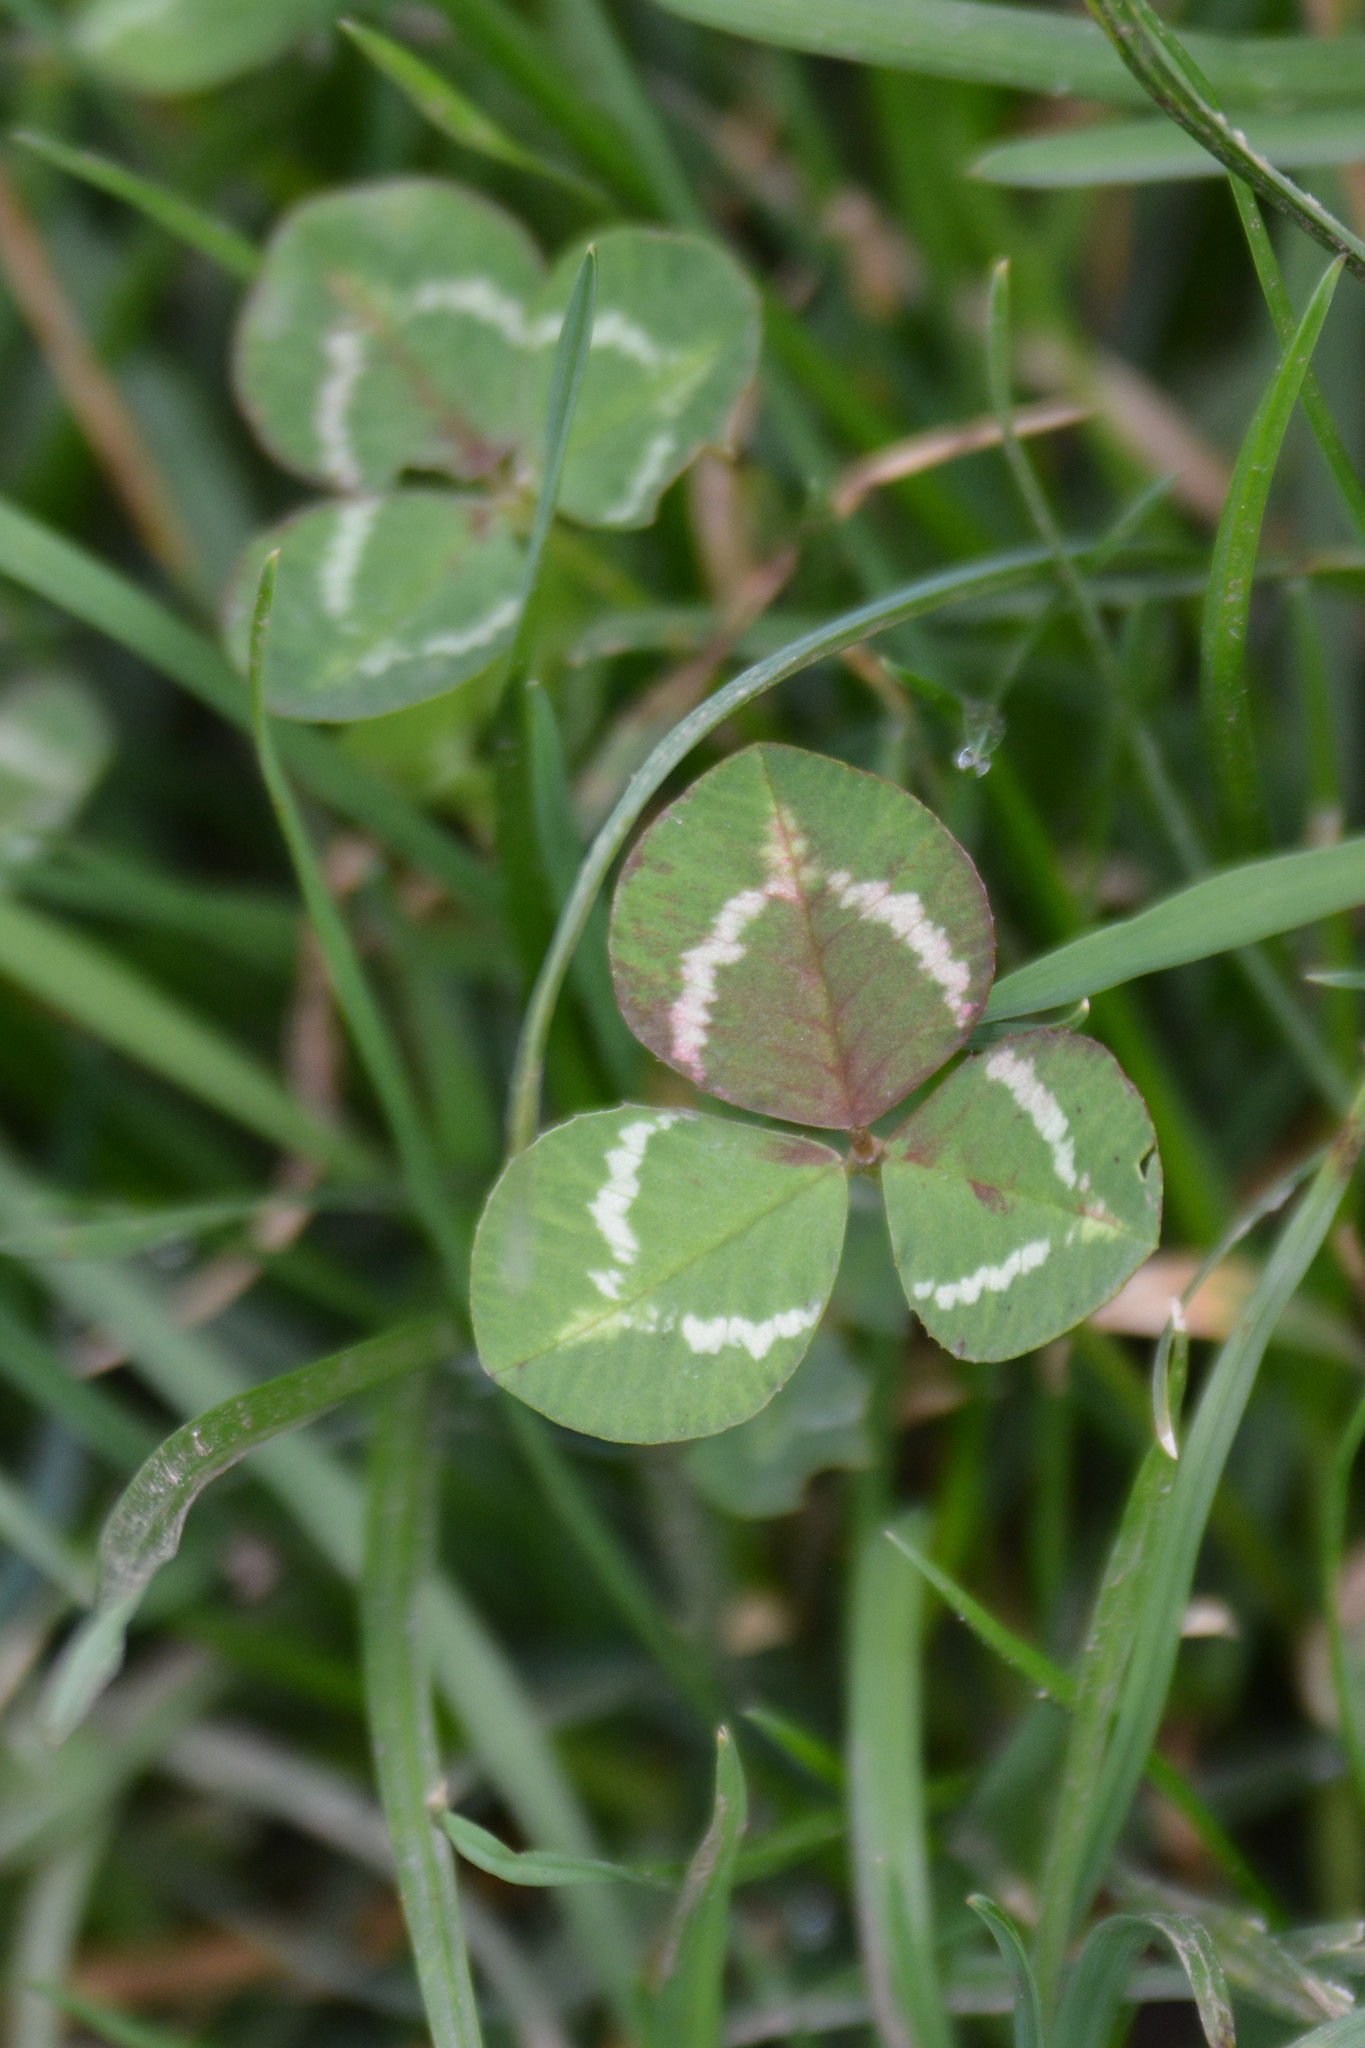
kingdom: Plantae
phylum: Tracheophyta
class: Magnoliopsida
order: Fabales
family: Fabaceae
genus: Trifolium
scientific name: Trifolium repens
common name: White clover
